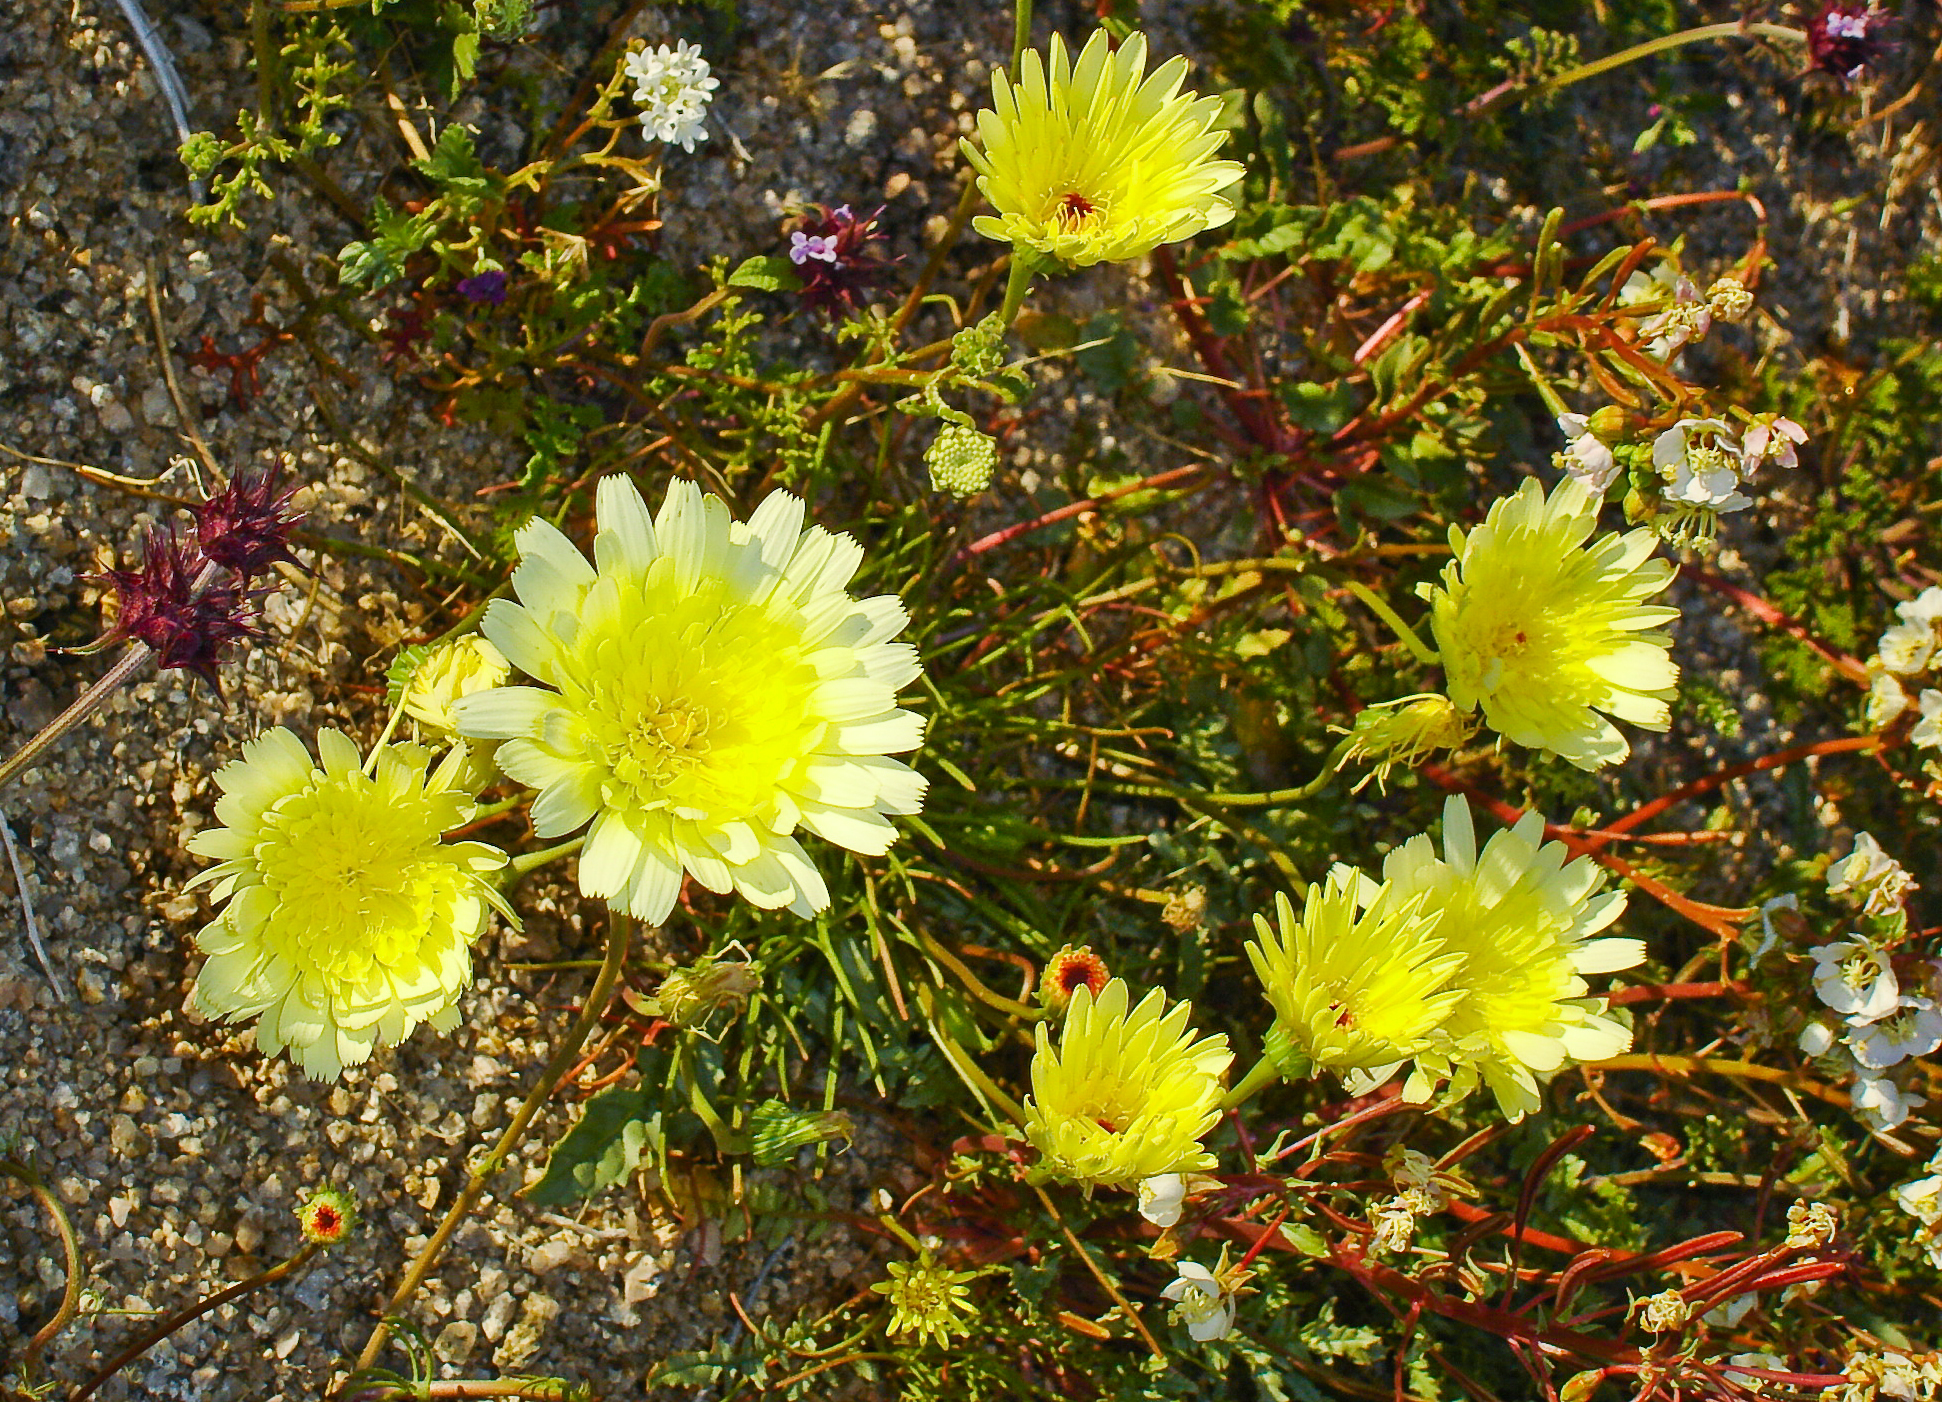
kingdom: Plantae
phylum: Tracheophyta
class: Magnoliopsida
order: Asterales
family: Asteraceae
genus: Malacothrix
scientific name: Malacothrix glabrata
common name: Smooth desert-dandelion
